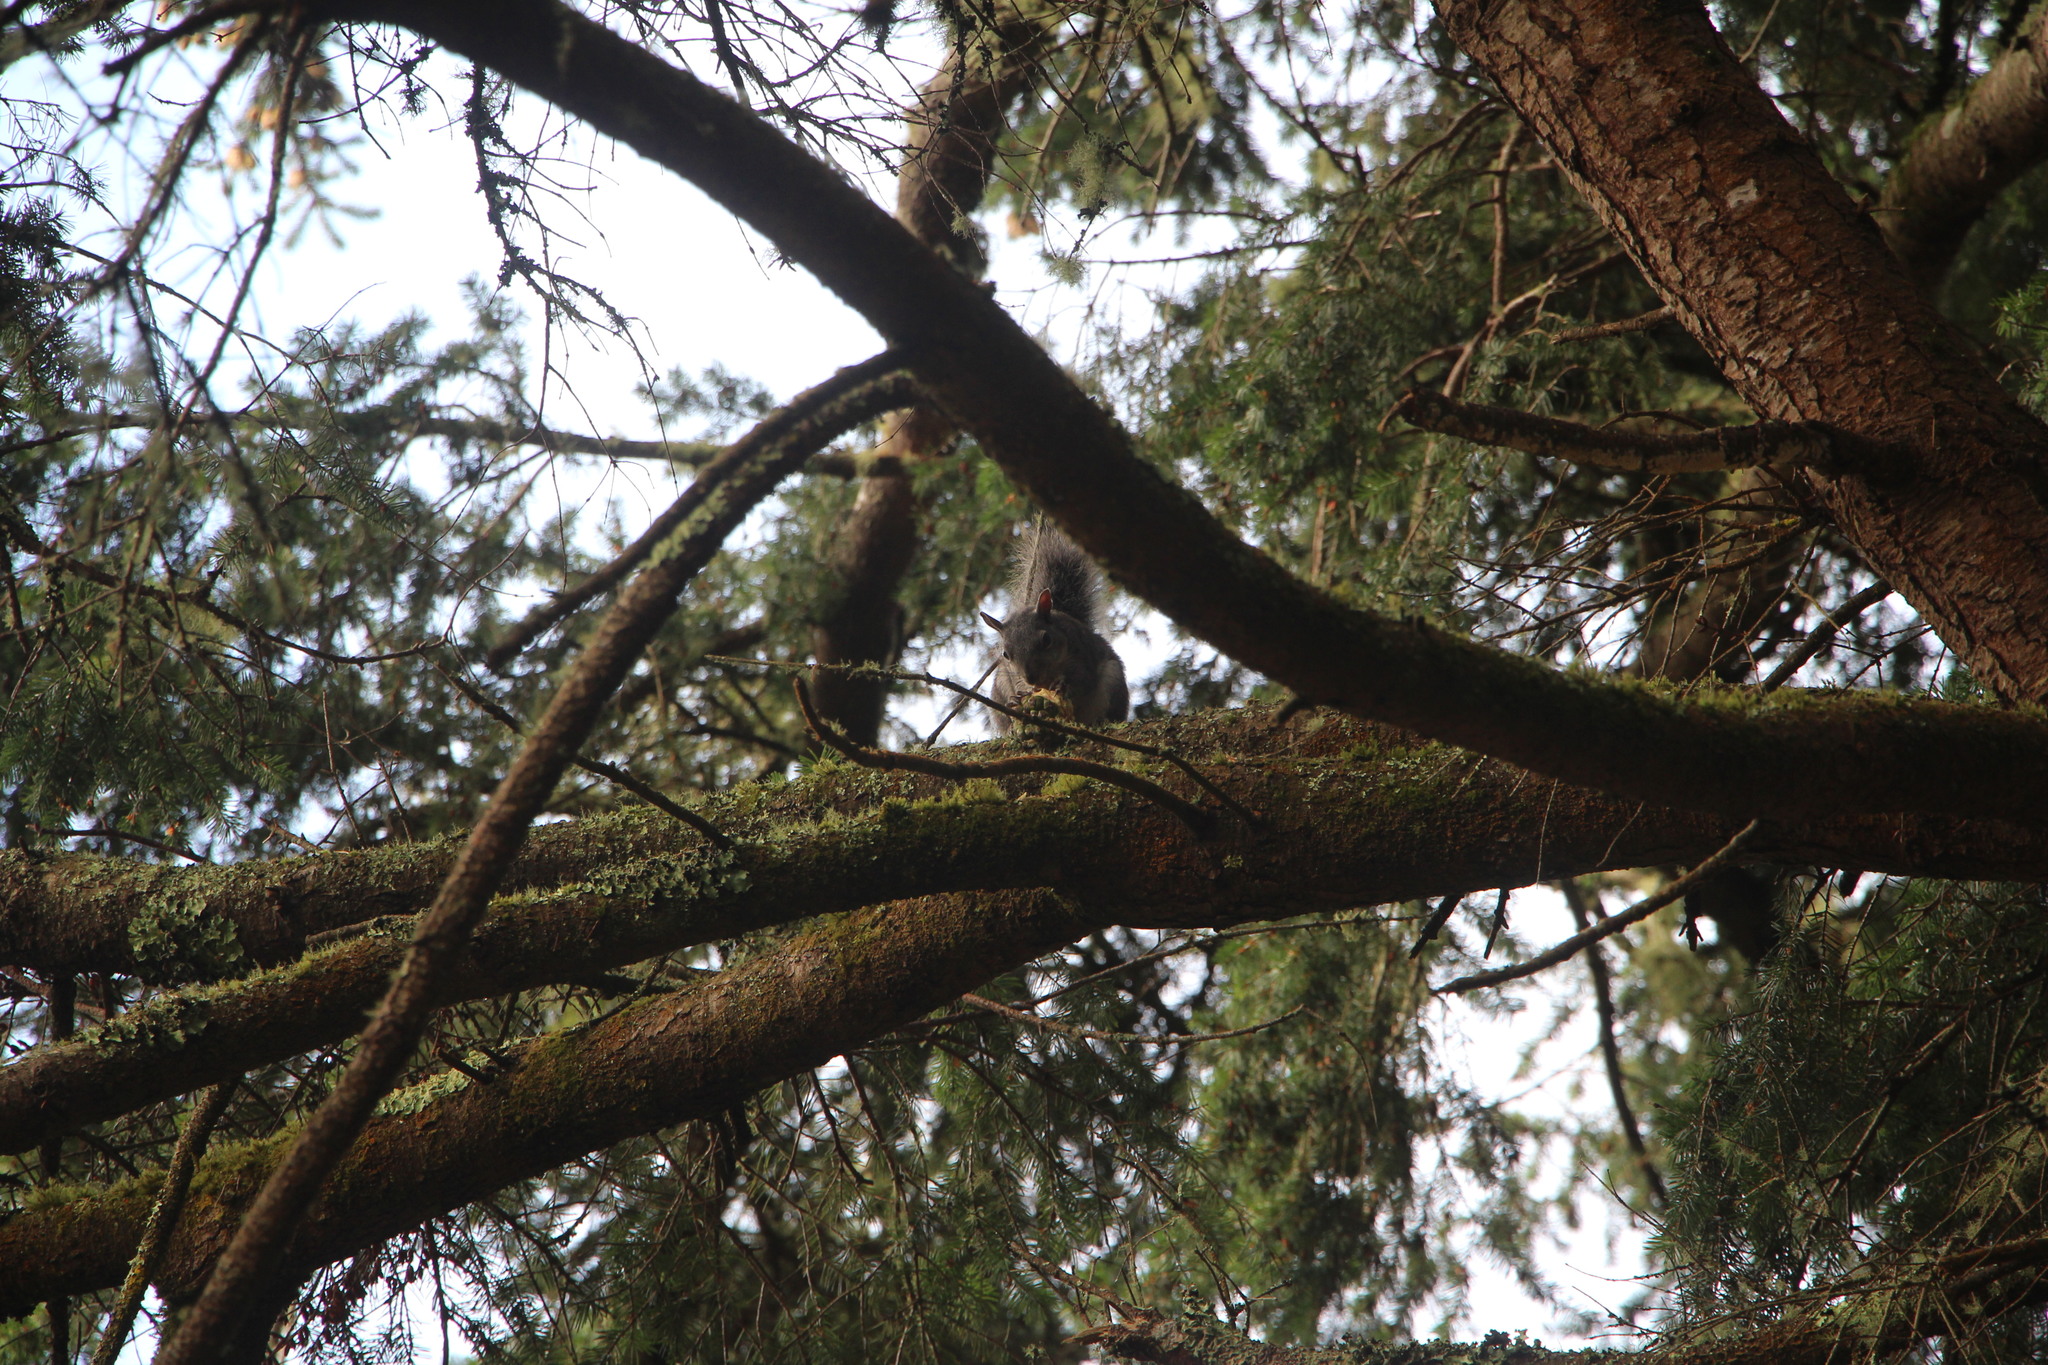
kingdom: Animalia
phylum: Chordata
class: Mammalia
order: Rodentia
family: Sciuridae
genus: Sciurus
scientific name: Sciurus griseus
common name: Western gray squirrel
